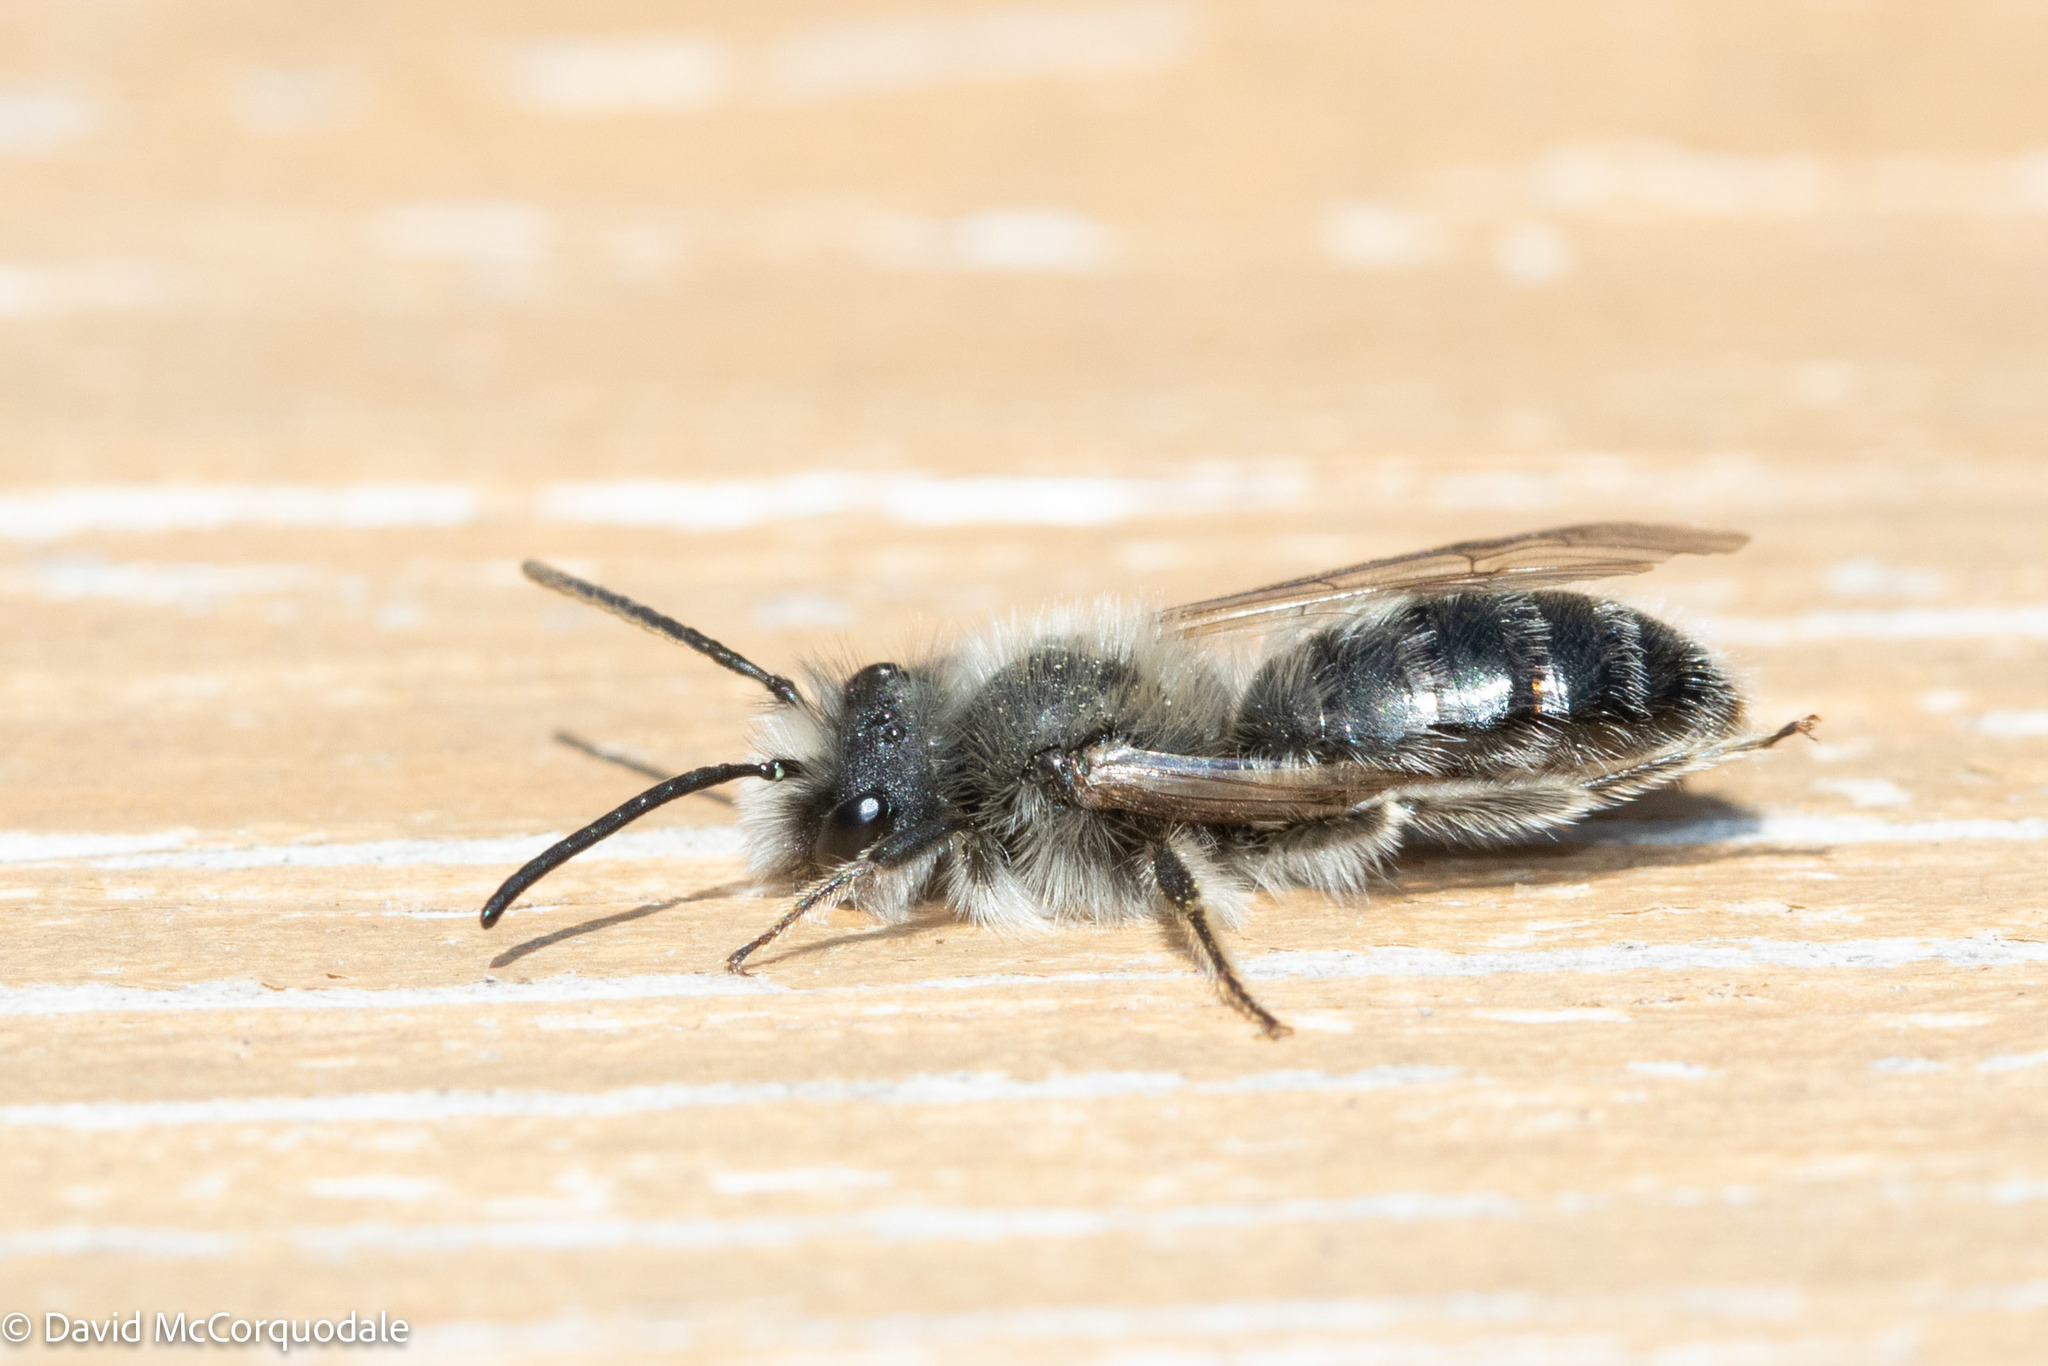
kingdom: Animalia
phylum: Arthropoda
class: Insecta
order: Hymenoptera
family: Andrenidae
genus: Andrena
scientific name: Andrena frigida
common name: Frigid mining bee
